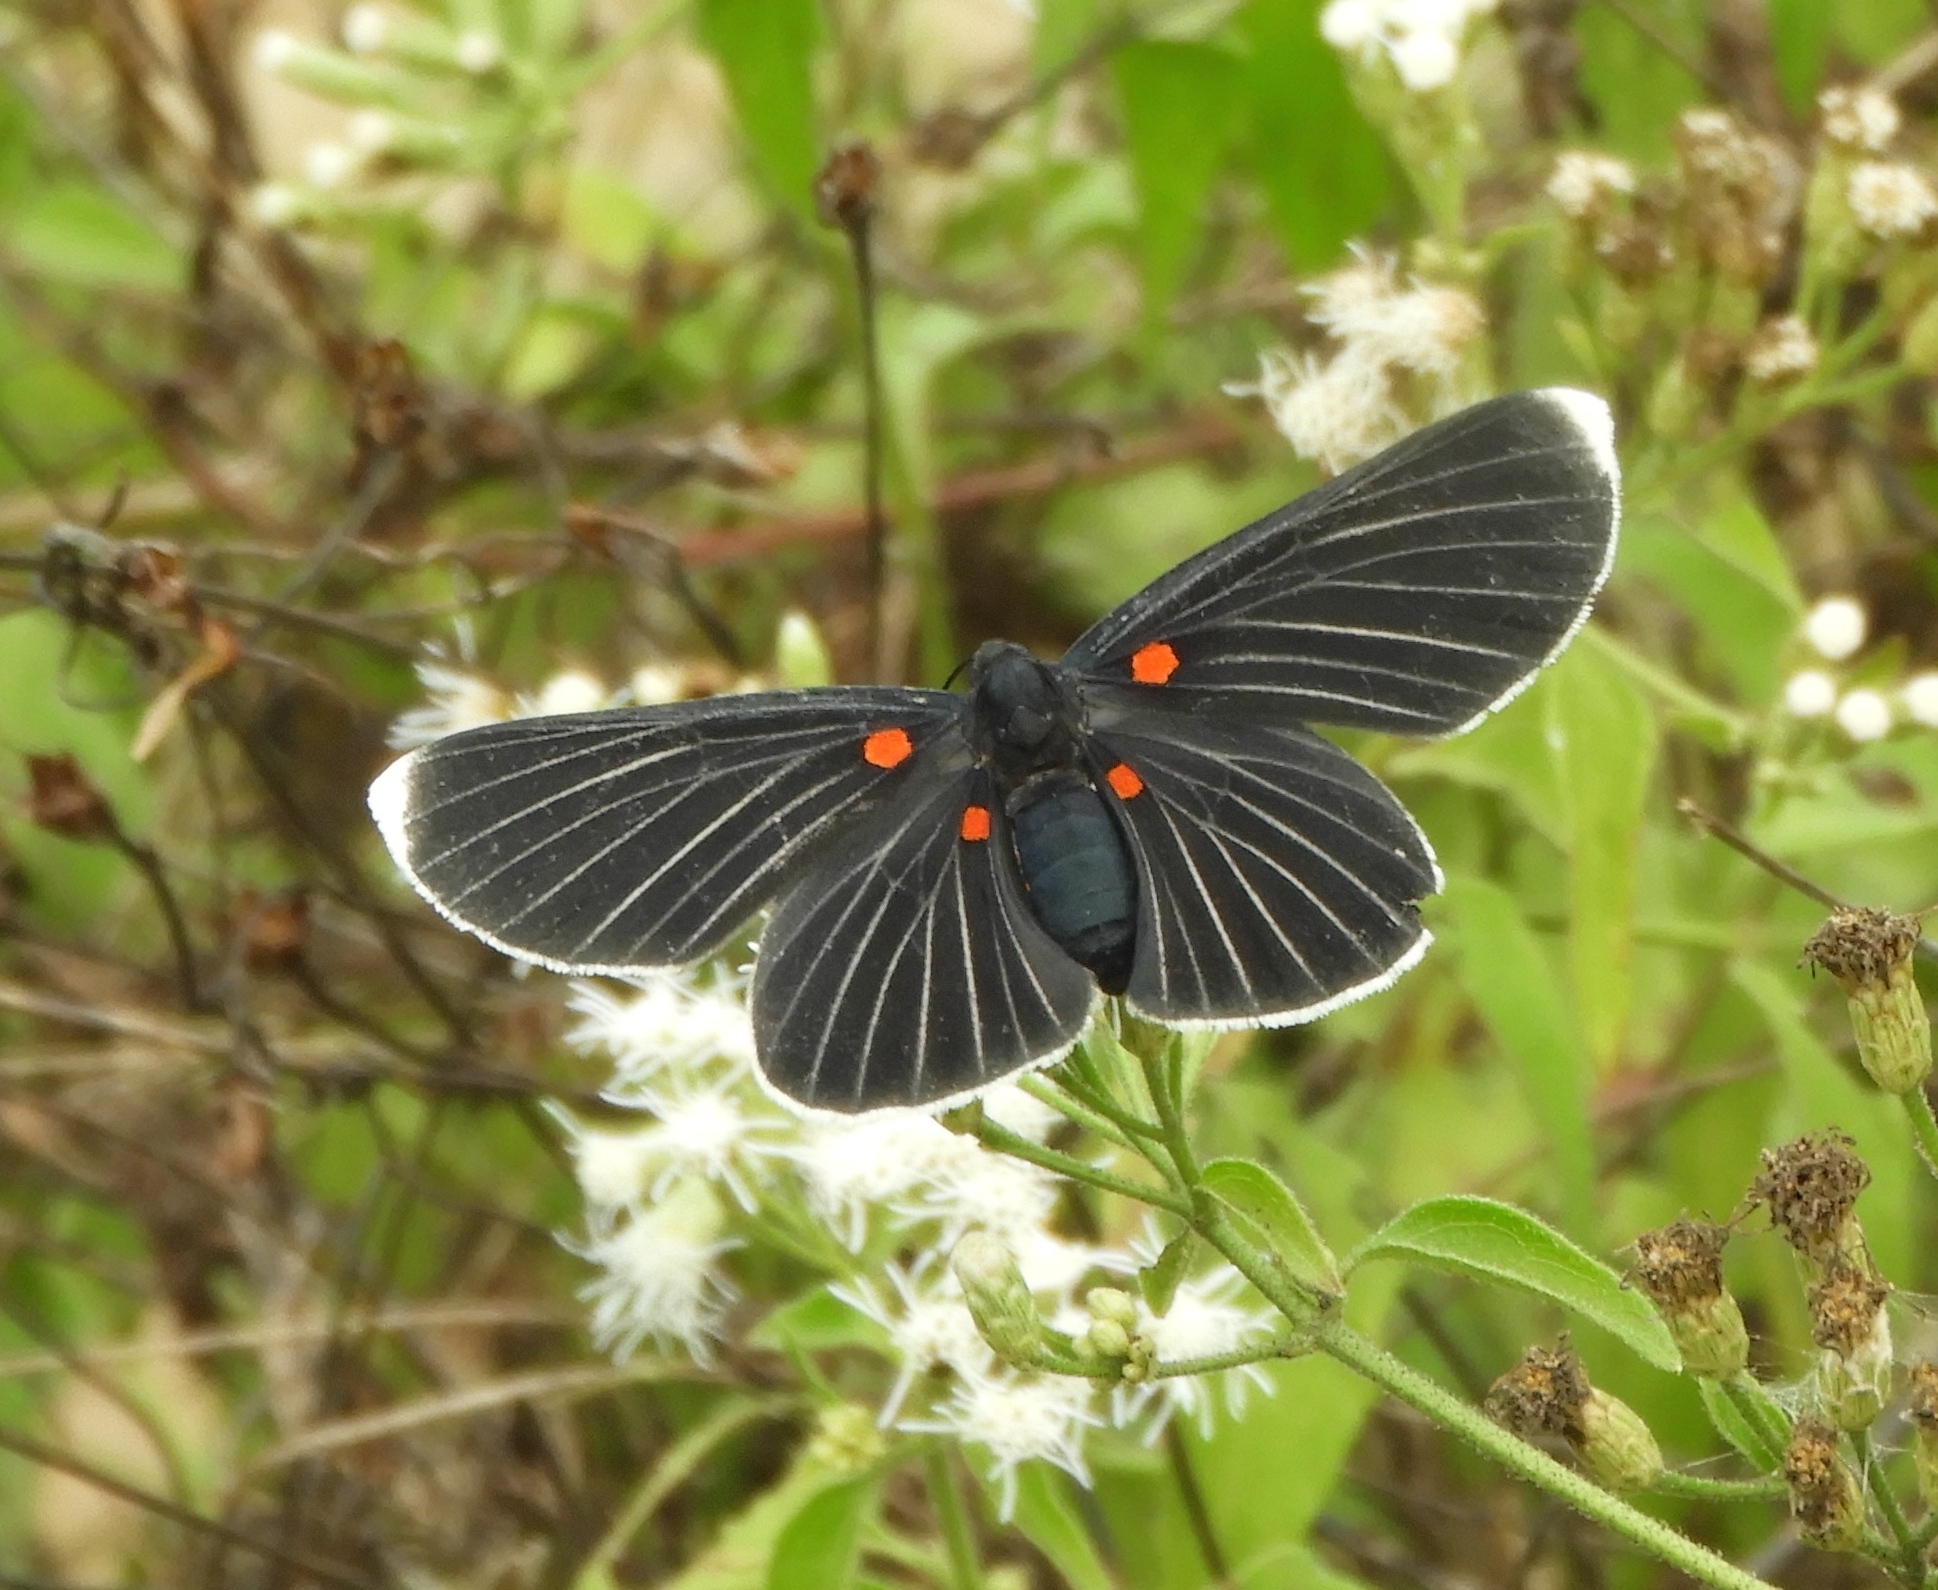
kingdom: Animalia
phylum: Arthropoda
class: Insecta
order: Lepidoptera
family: Lycaenidae
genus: Melanis
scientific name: Melanis
